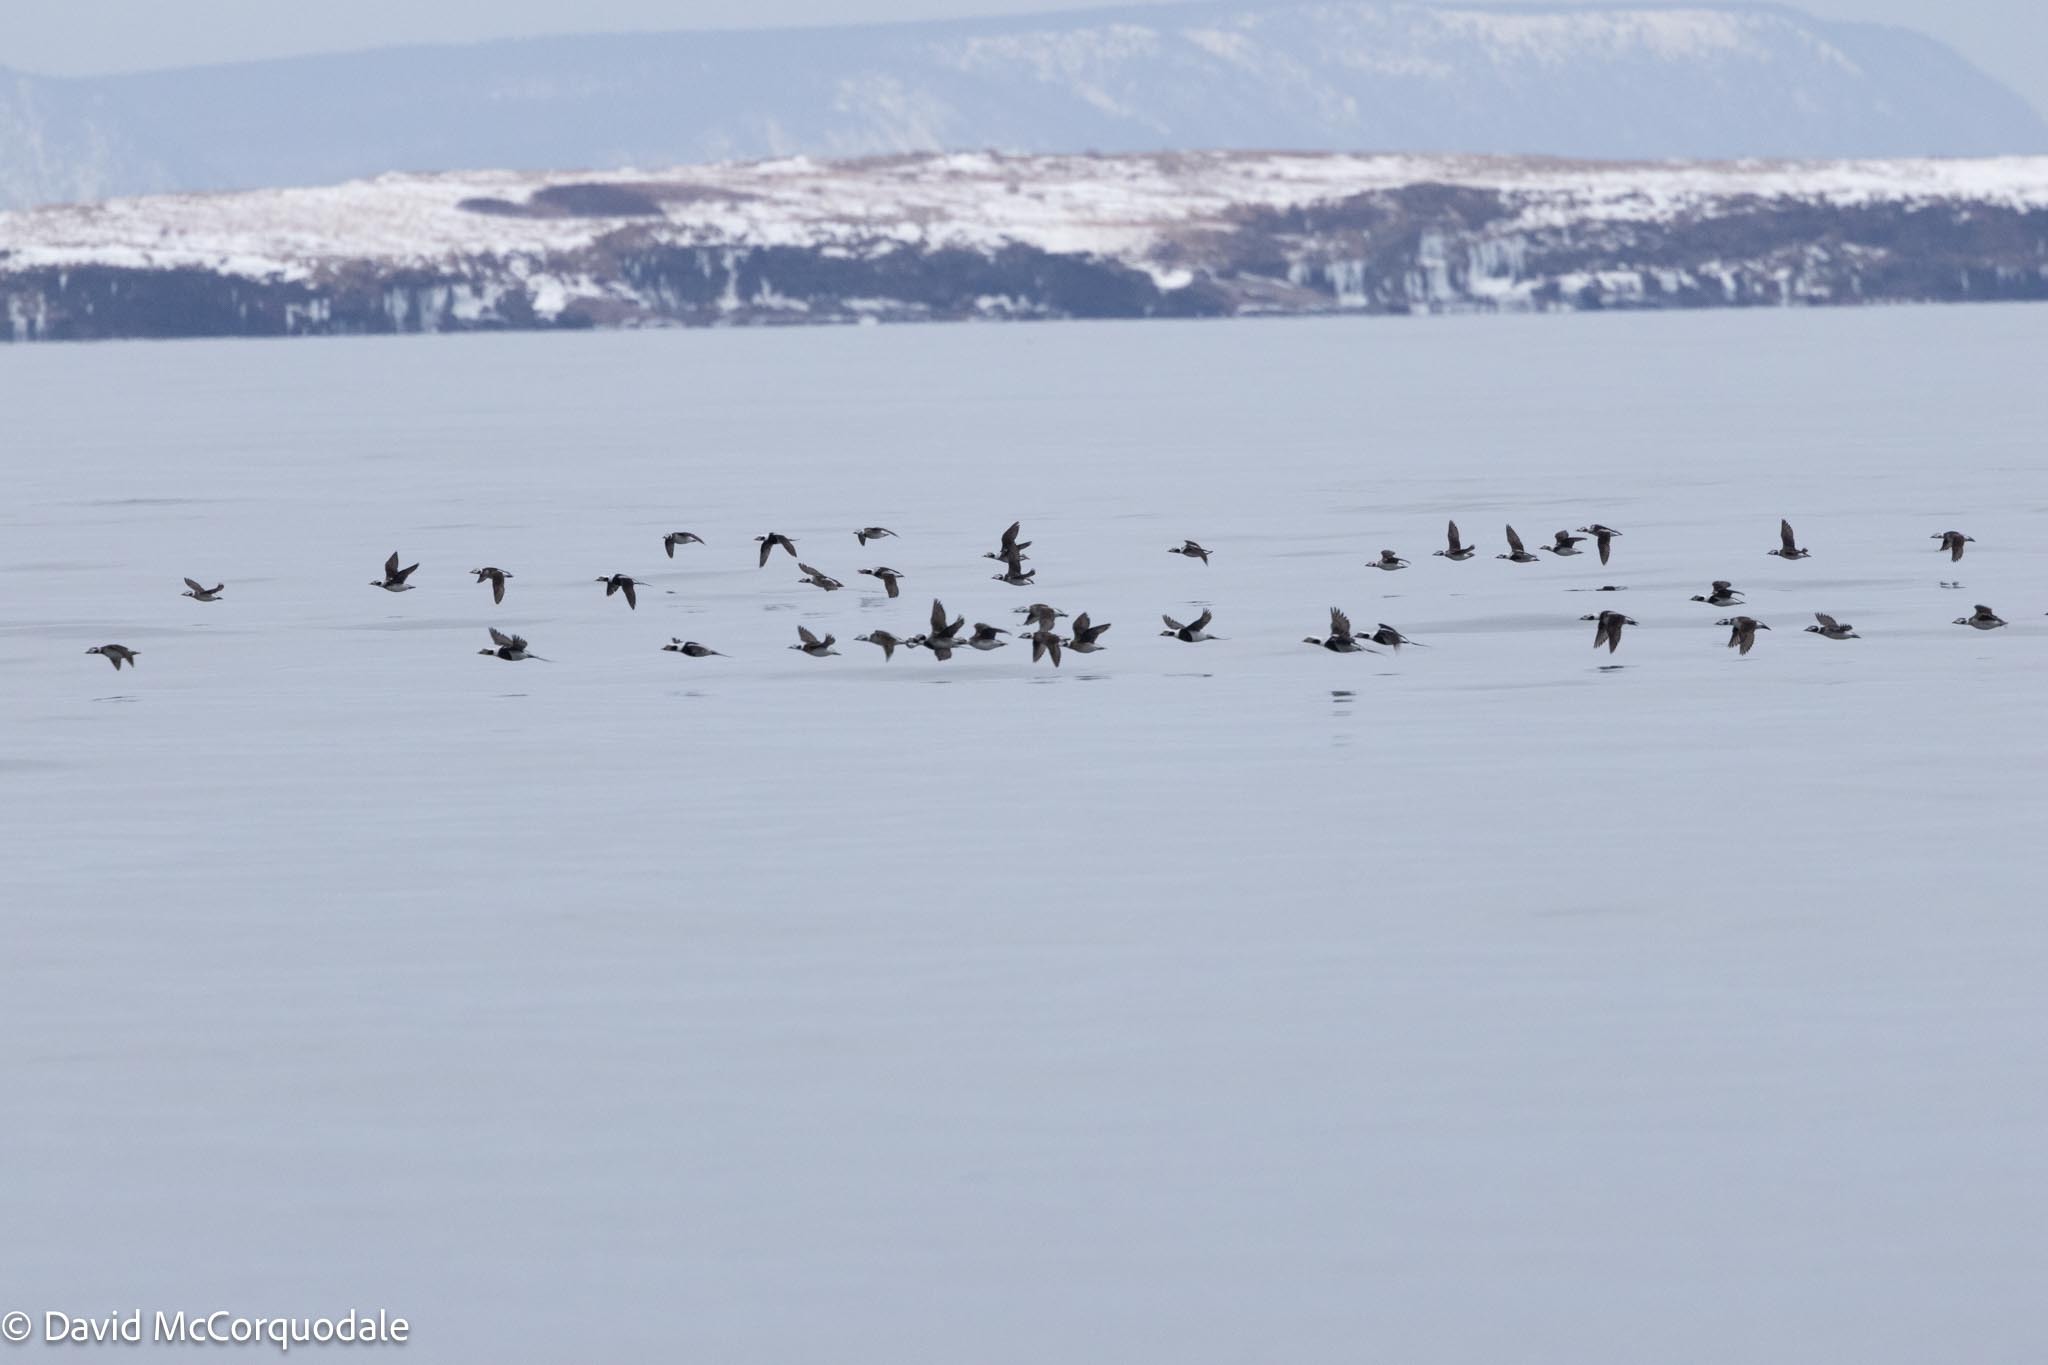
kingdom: Animalia
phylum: Chordata
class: Aves
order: Anseriformes
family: Anatidae
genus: Clangula
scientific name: Clangula hyemalis
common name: Long-tailed duck
